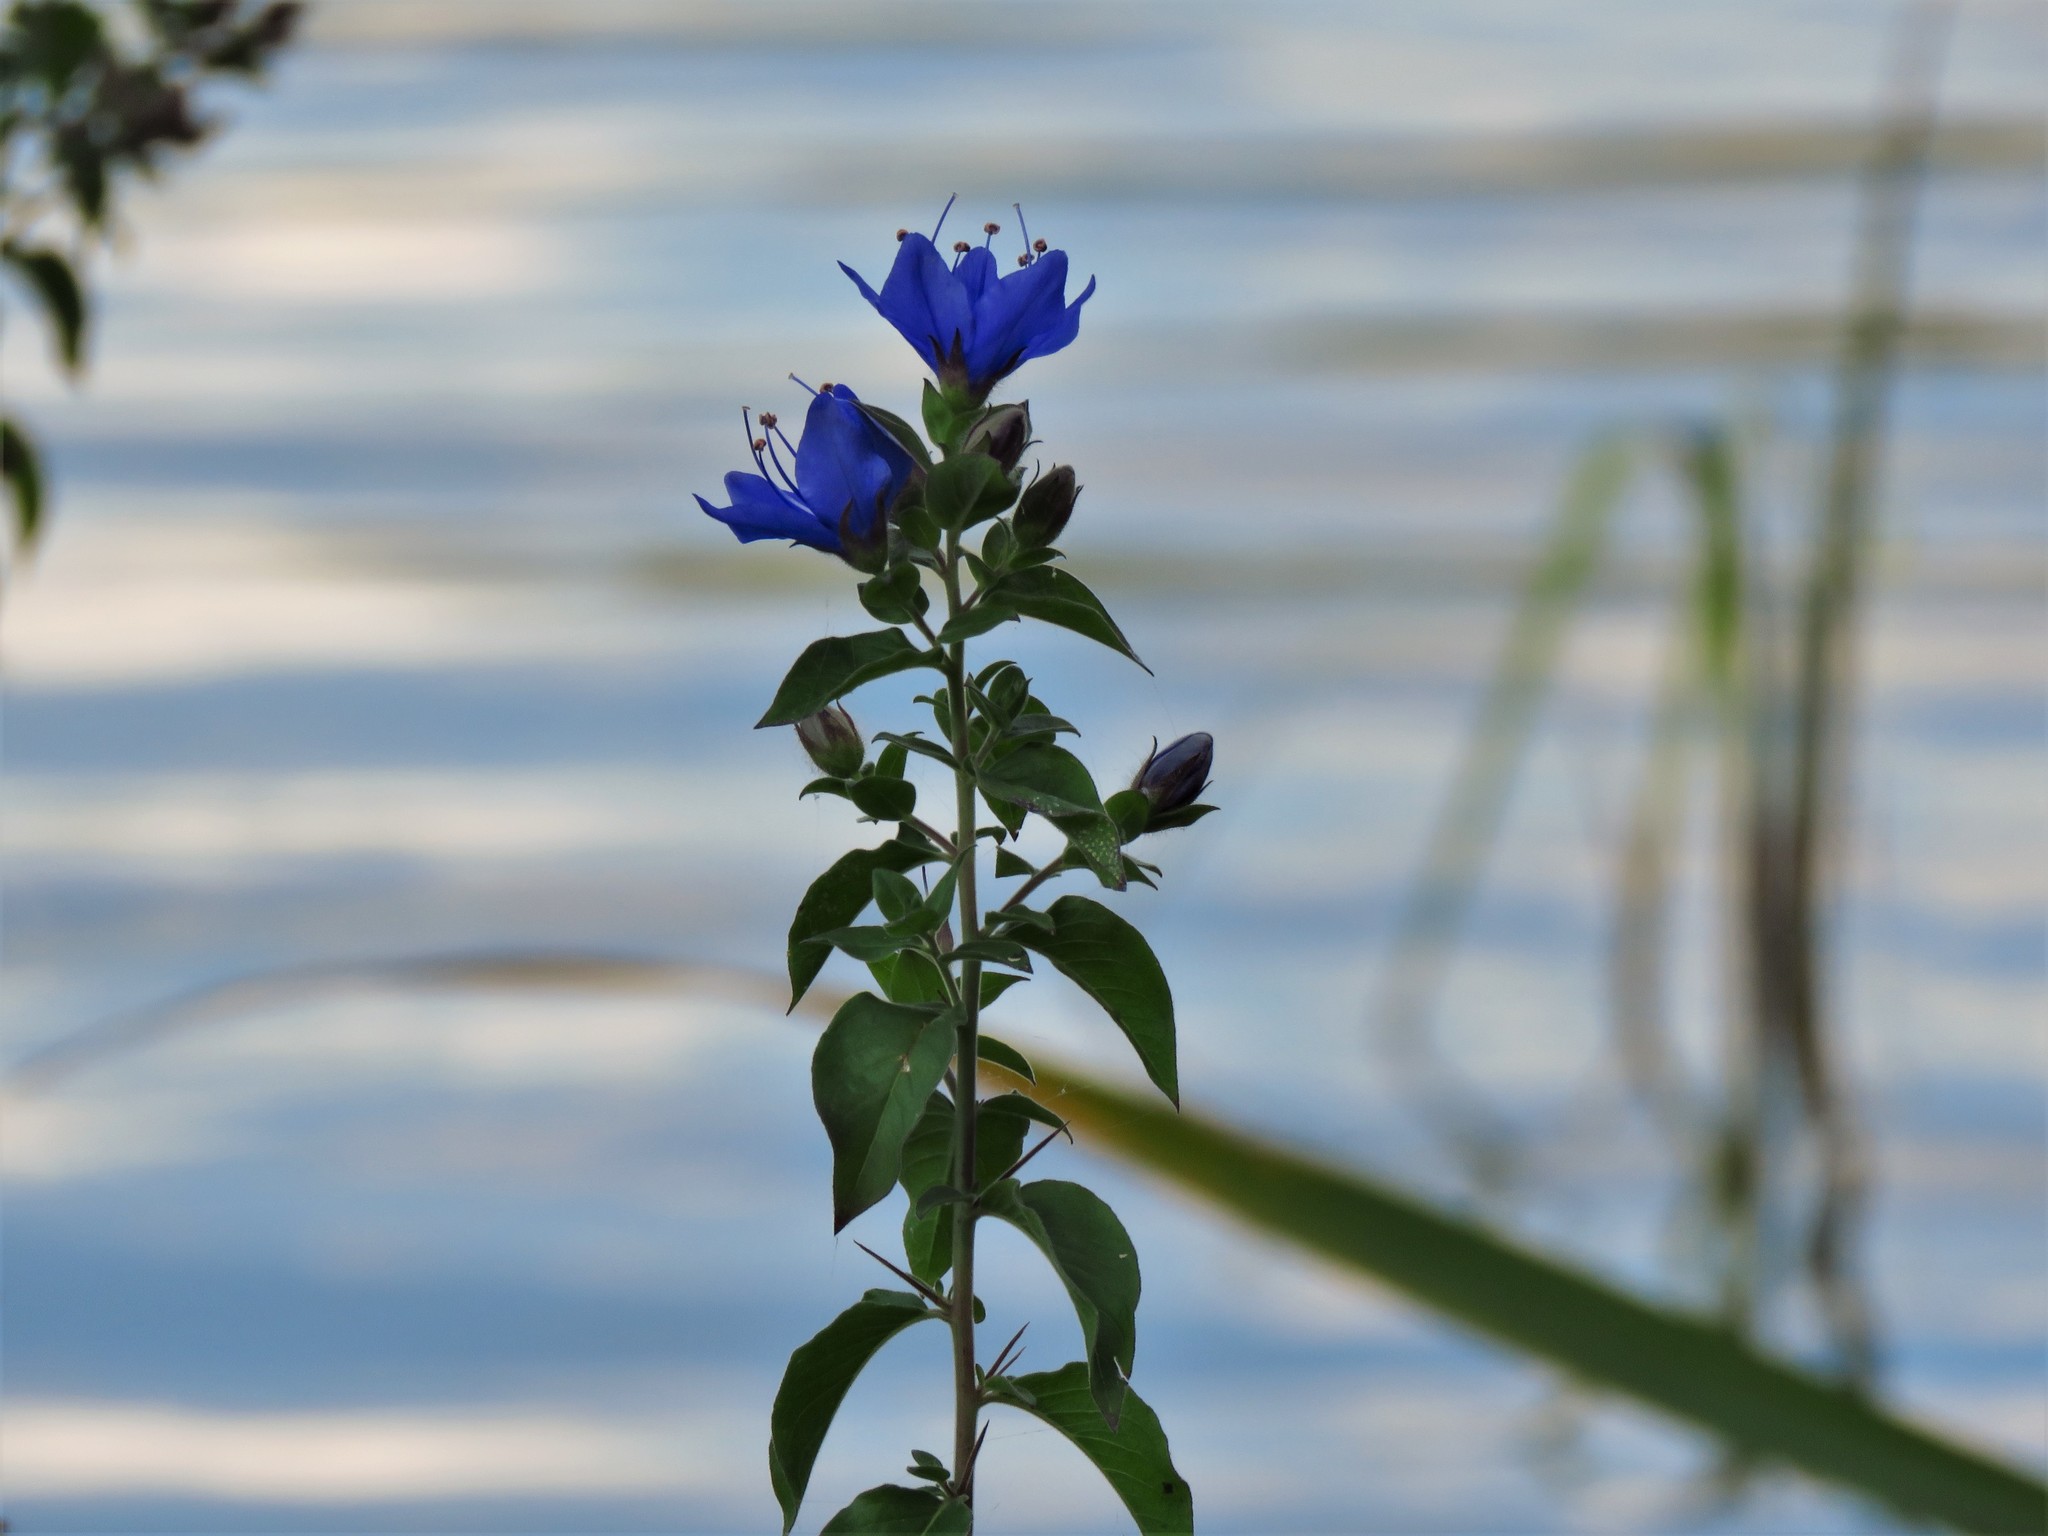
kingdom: Plantae
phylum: Tracheophyta
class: Magnoliopsida
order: Solanales
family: Hydroleaceae
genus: Hydrolea
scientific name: Hydrolea ovata
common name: Ovate false fiddleleaf
